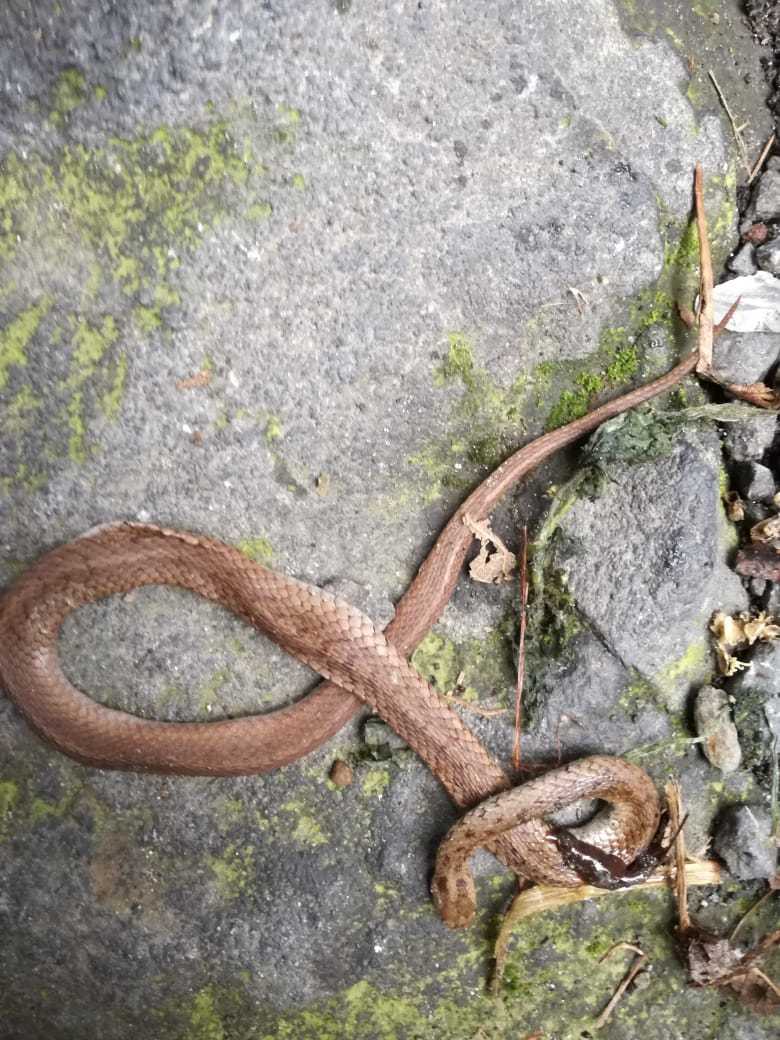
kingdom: Animalia
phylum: Chordata
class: Squamata
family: Colubridae
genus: Storeria
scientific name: Storeria storerioides
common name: Mexican brown snake
